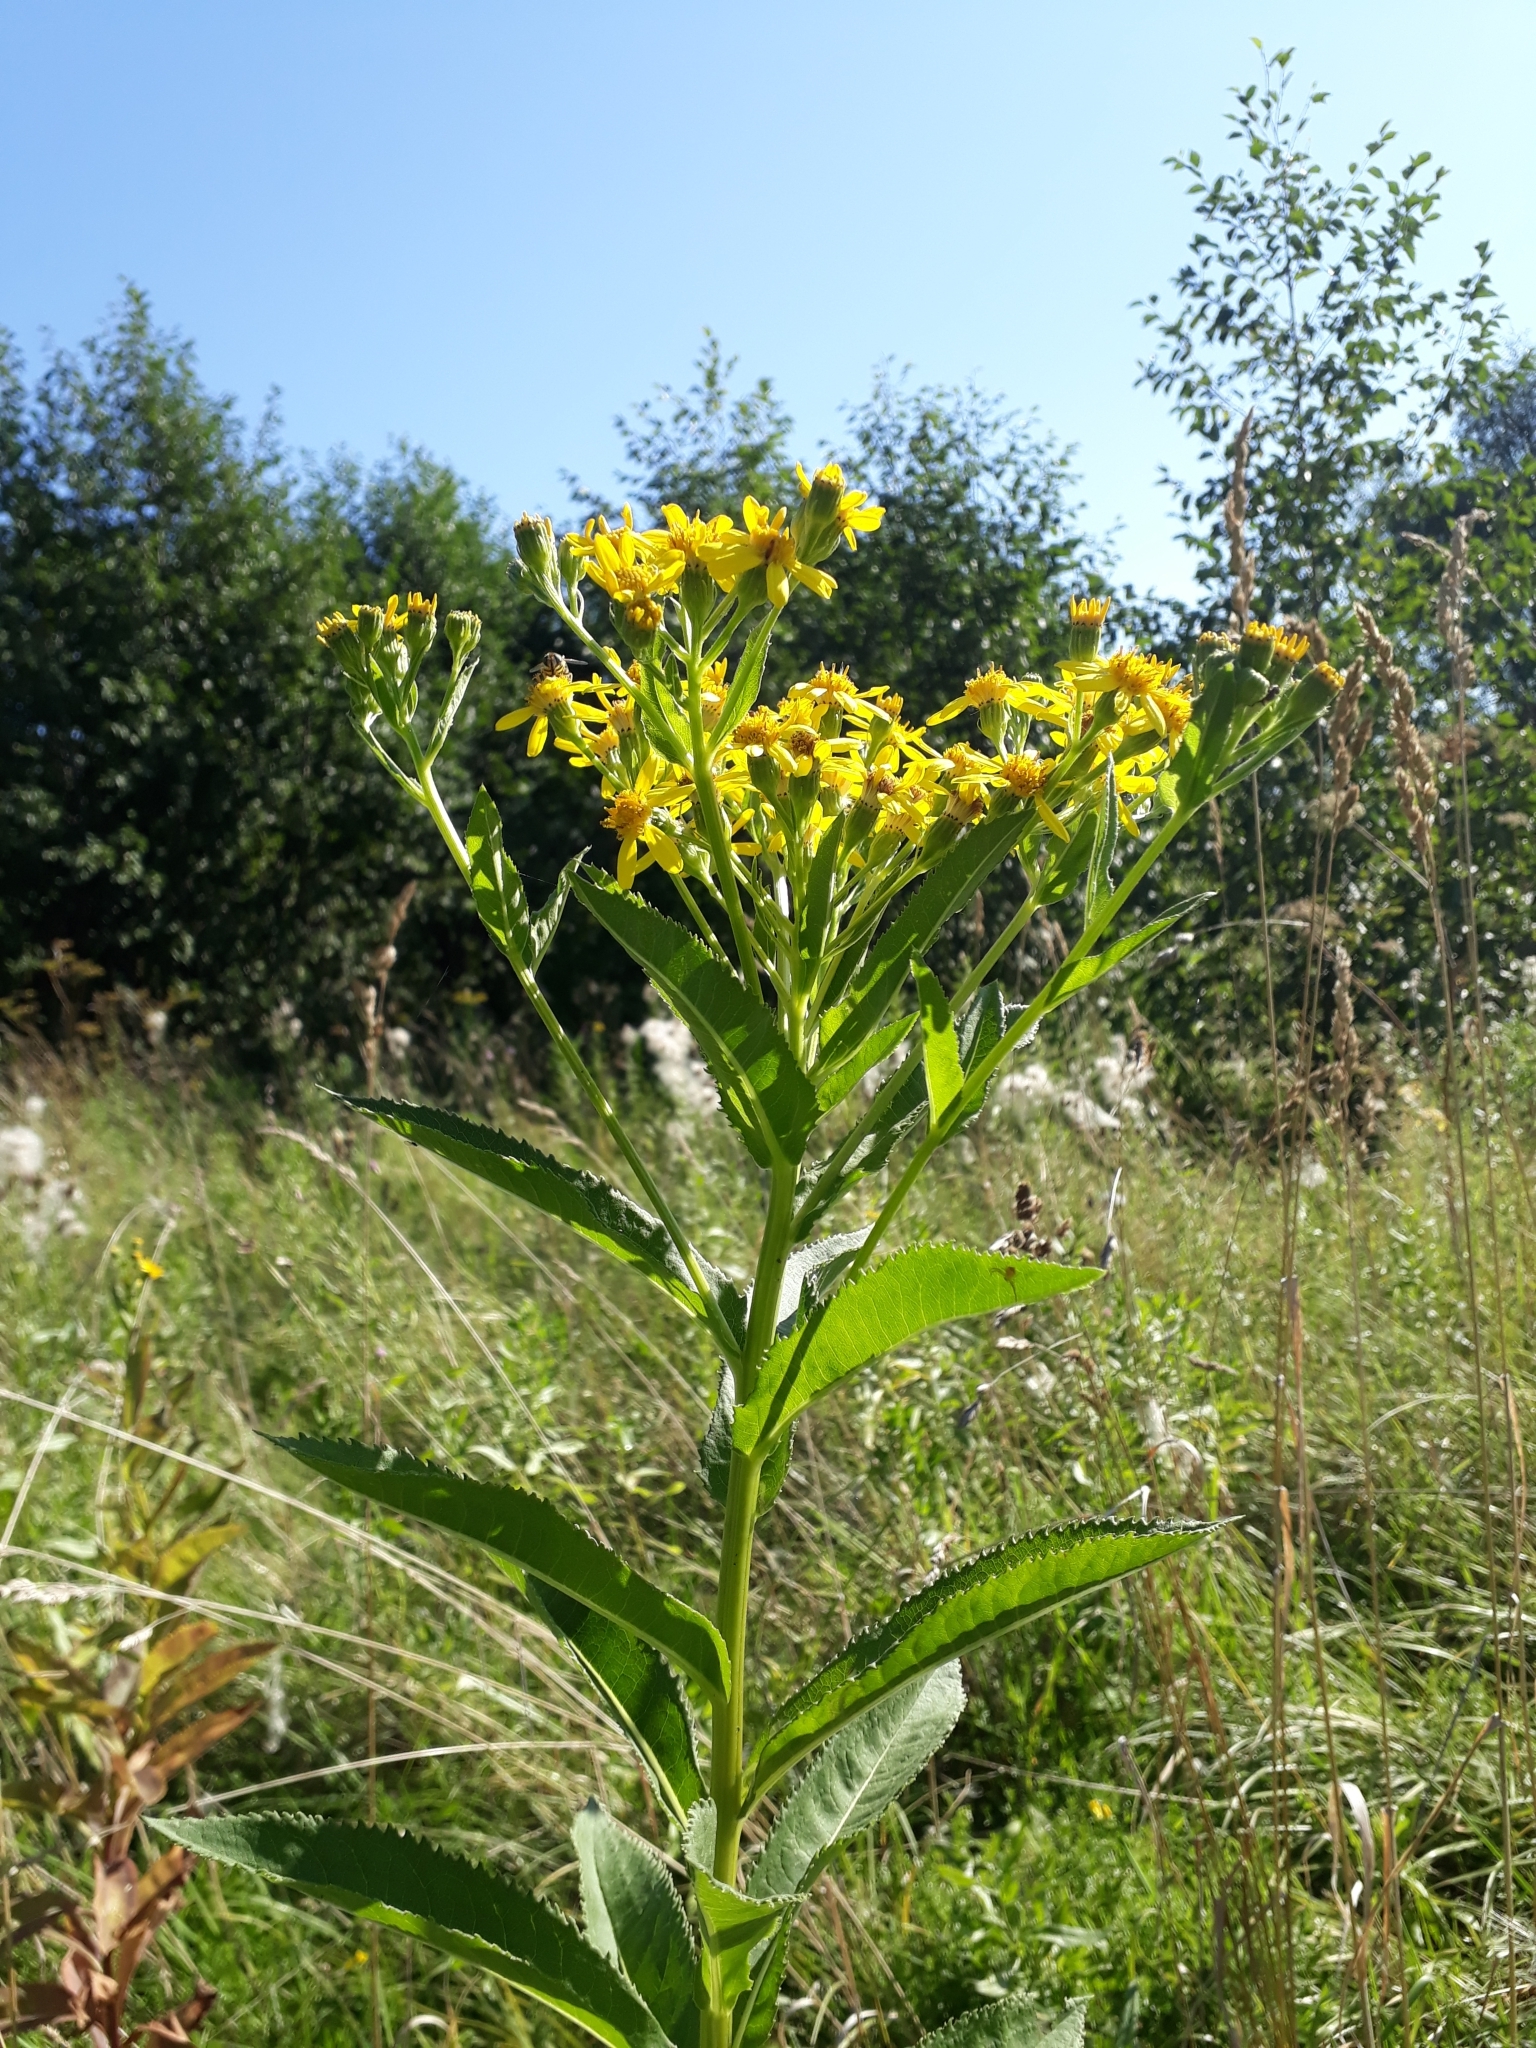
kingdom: Plantae
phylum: Tracheophyta
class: Magnoliopsida
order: Asterales
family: Asteraceae
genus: Senecio
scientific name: Senecio sarracenicus
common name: Broad-leaved ragwort
